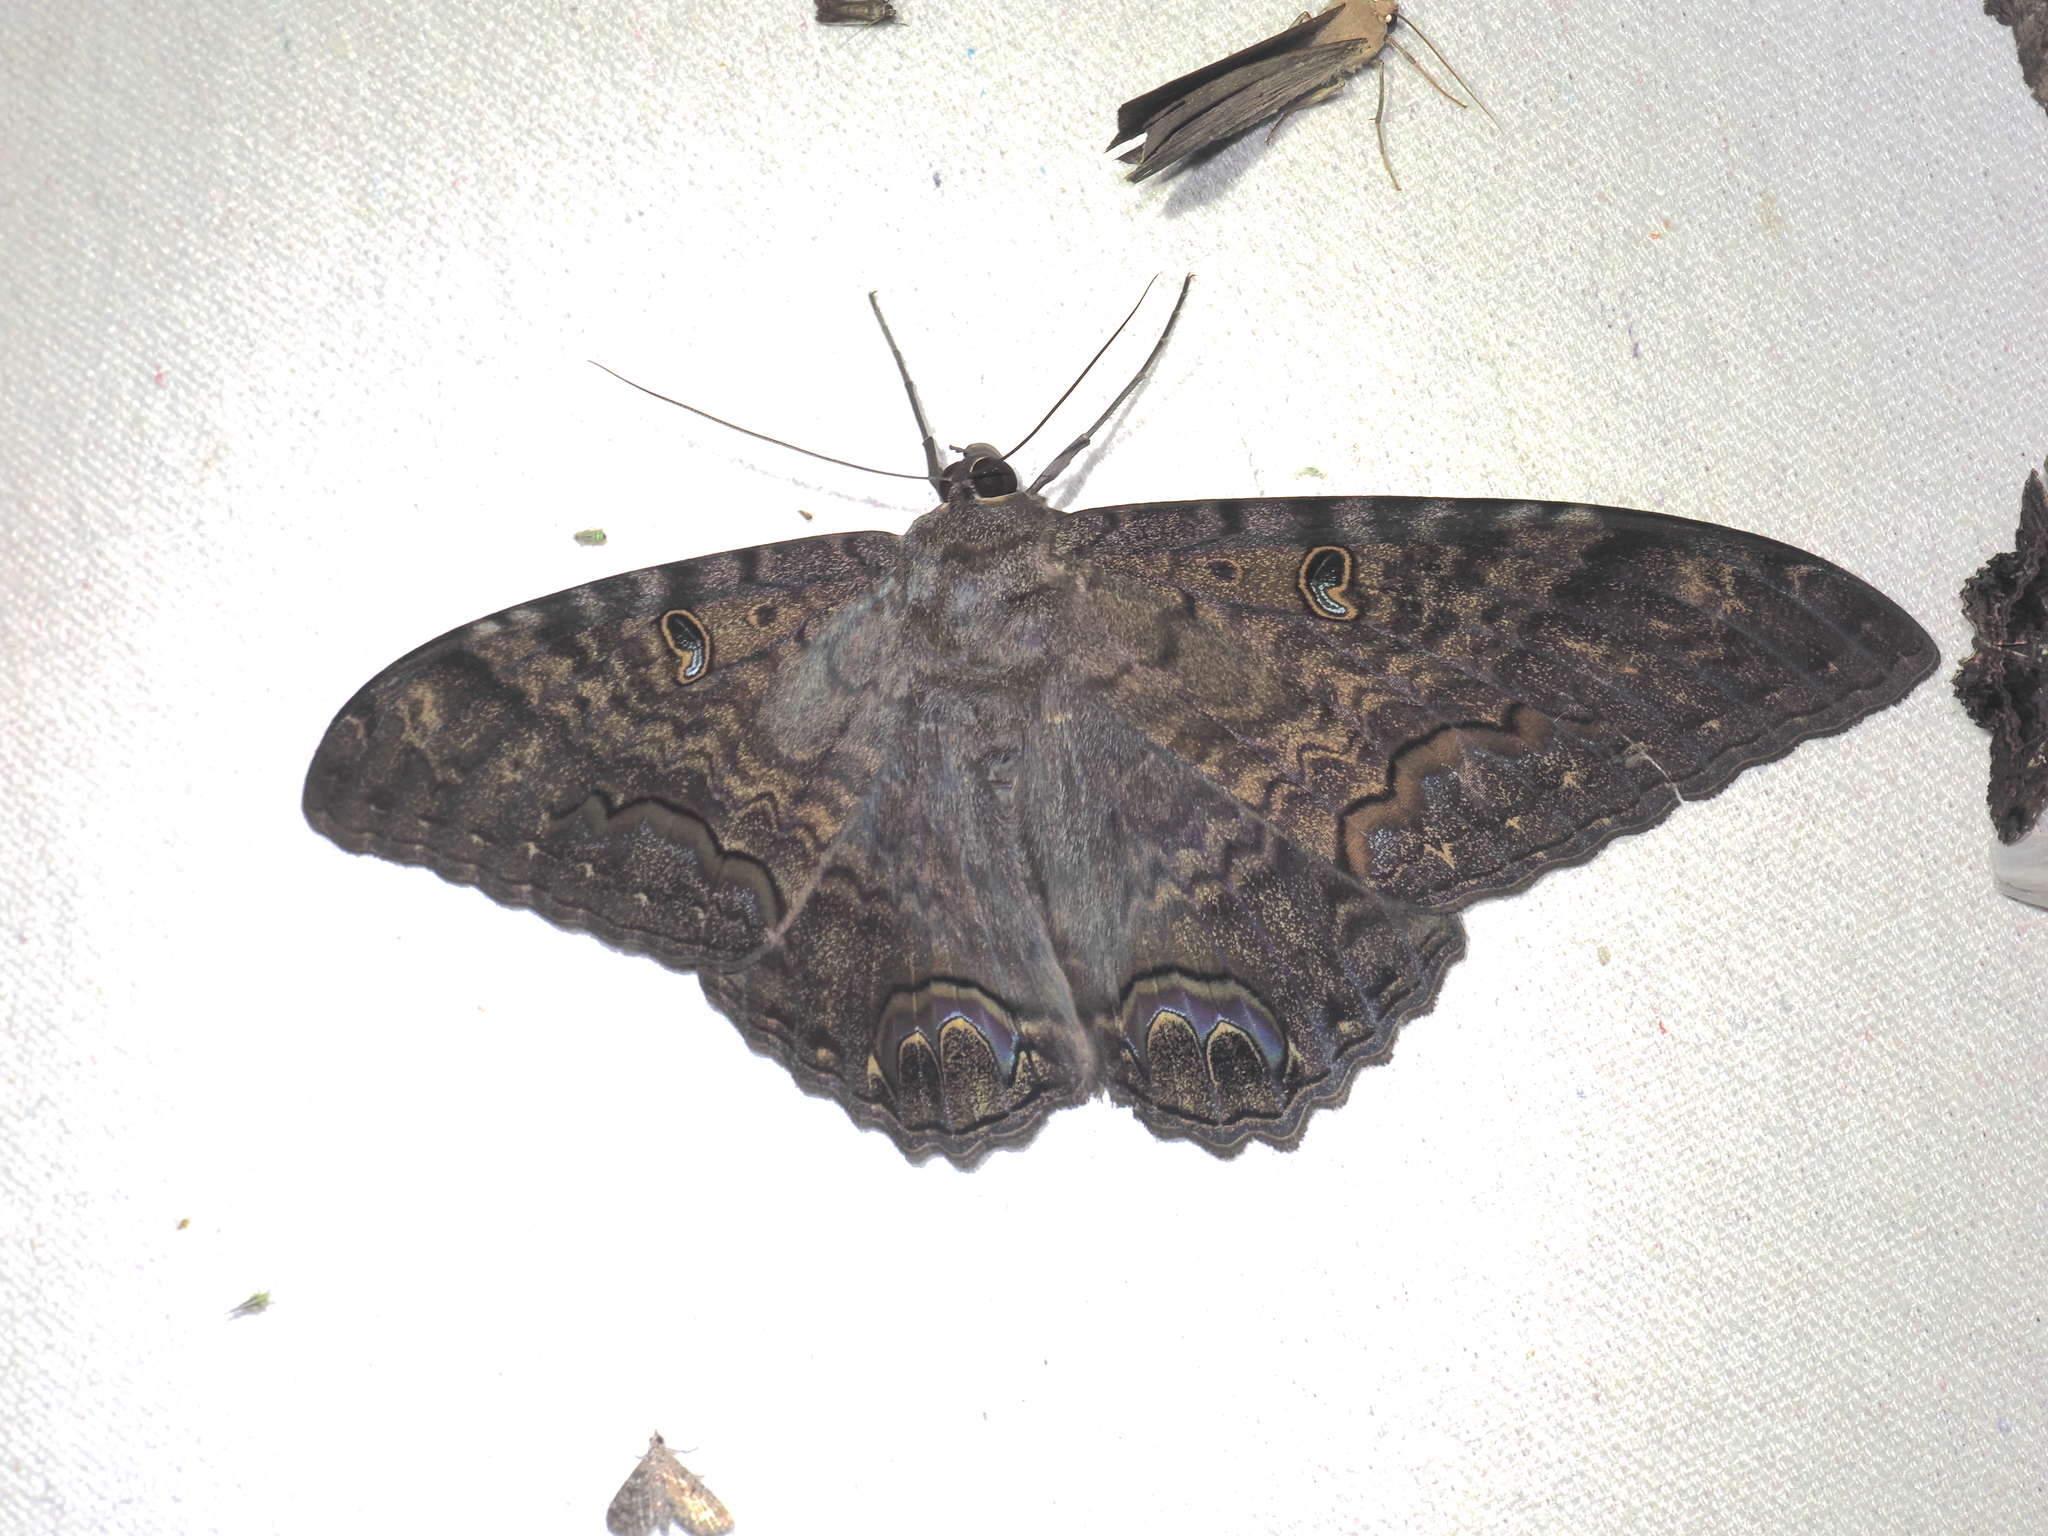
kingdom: Animalia
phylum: Arthropoda
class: Insecta
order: Lepidoptera
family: Erebidae
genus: Ascalapha
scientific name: Ascalapha odorata
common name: Black witch
